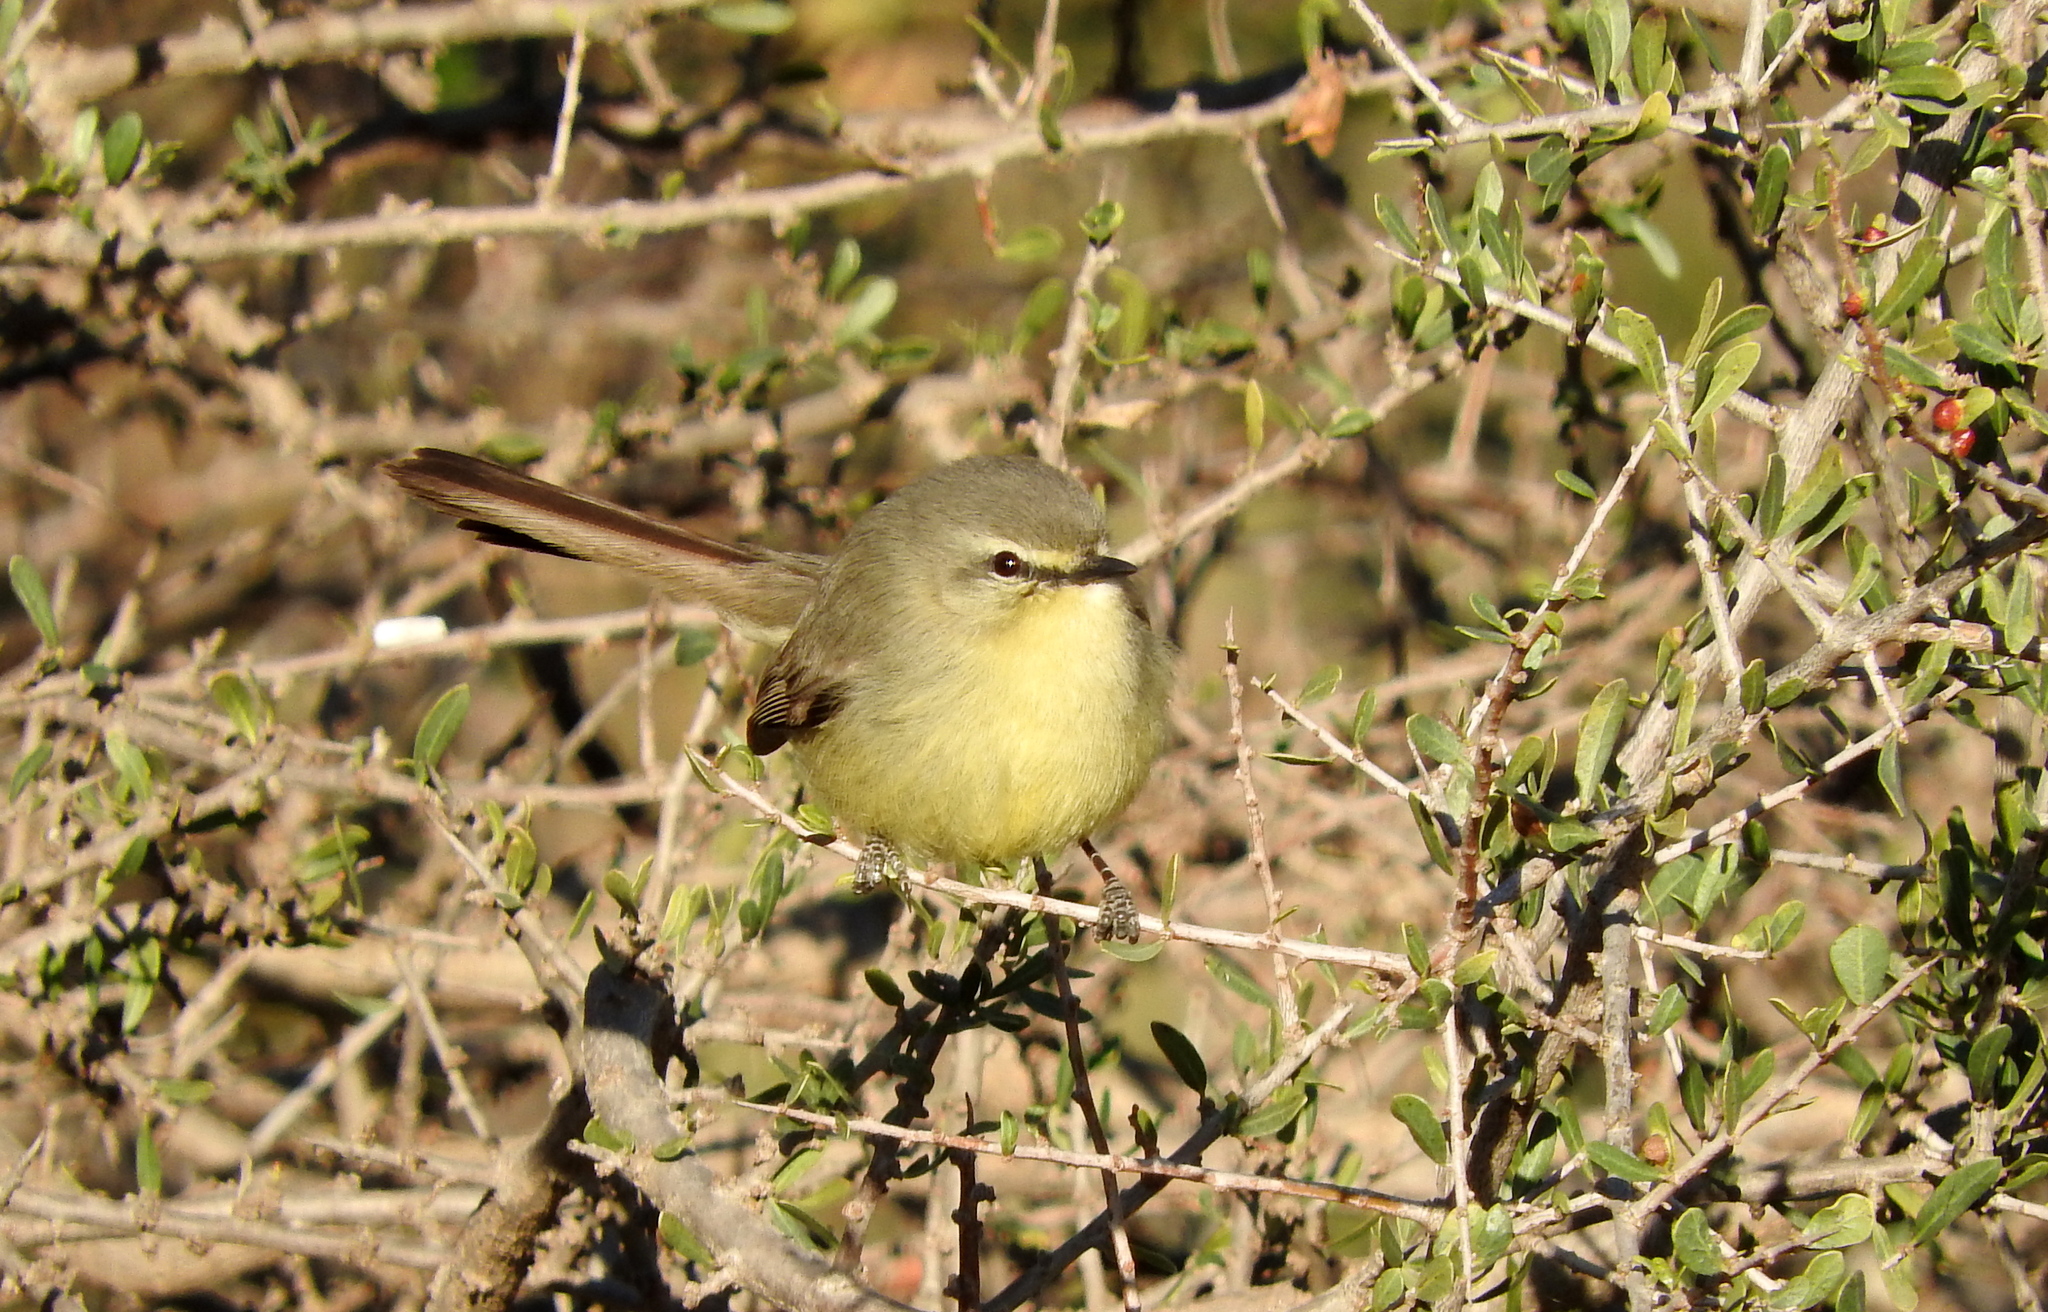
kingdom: Animalia
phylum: Chordata
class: Aves
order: Passeriformes
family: Tyrannidae
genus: Stigmatura
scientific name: Stigmatura budytoides
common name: Greater wagtail-tyrant
